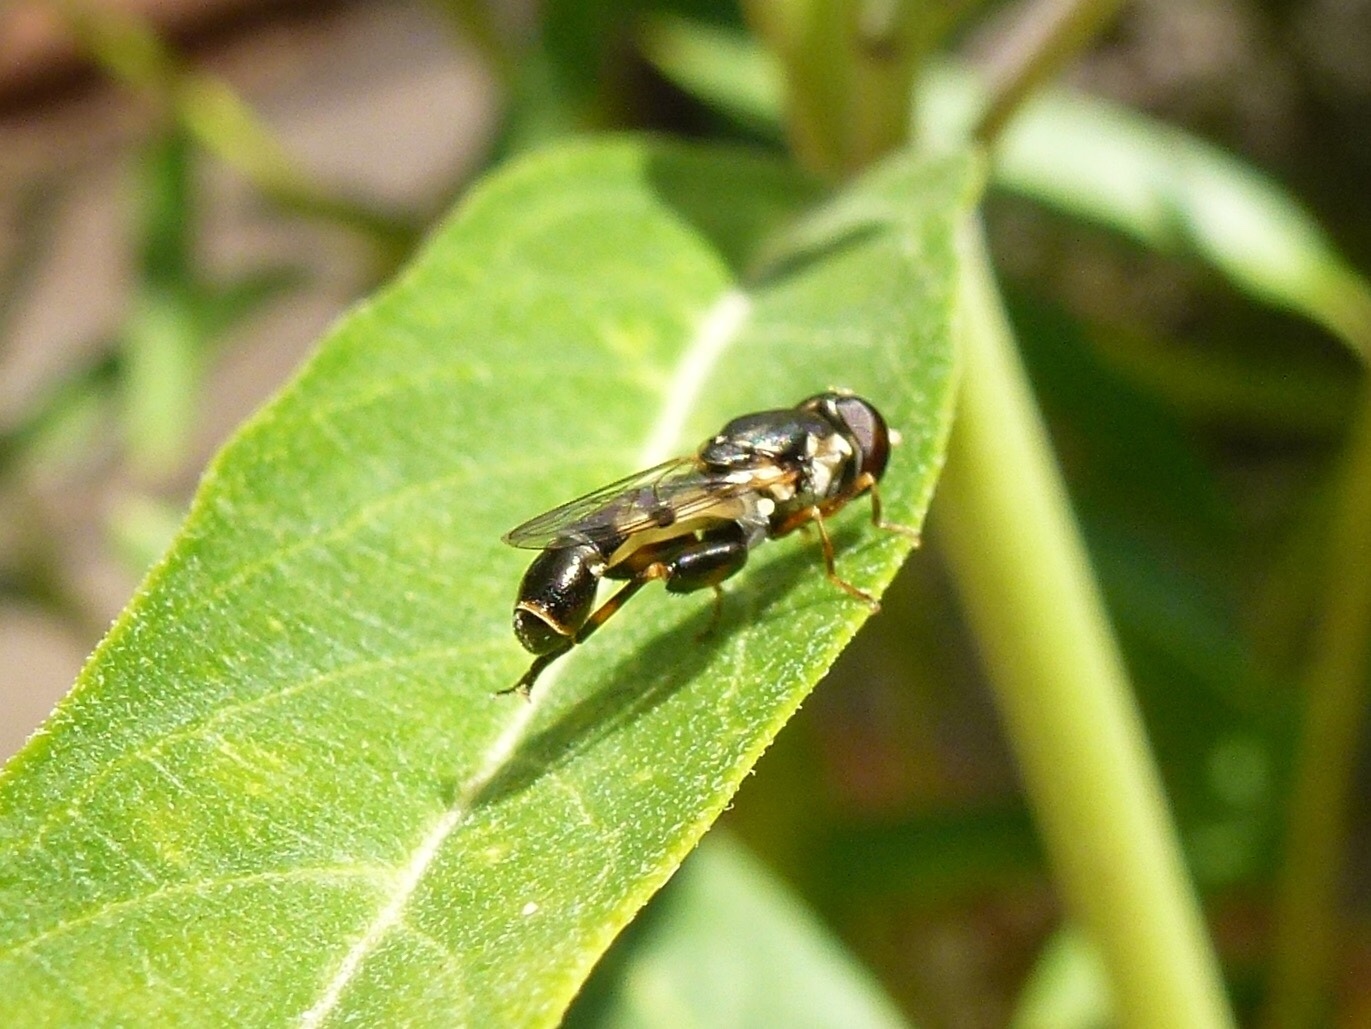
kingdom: Animalia
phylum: Arthropoda
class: Insecta
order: Diptera
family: Syrphidae
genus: Syritta
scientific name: Syritta pipiens
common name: Hover fly
